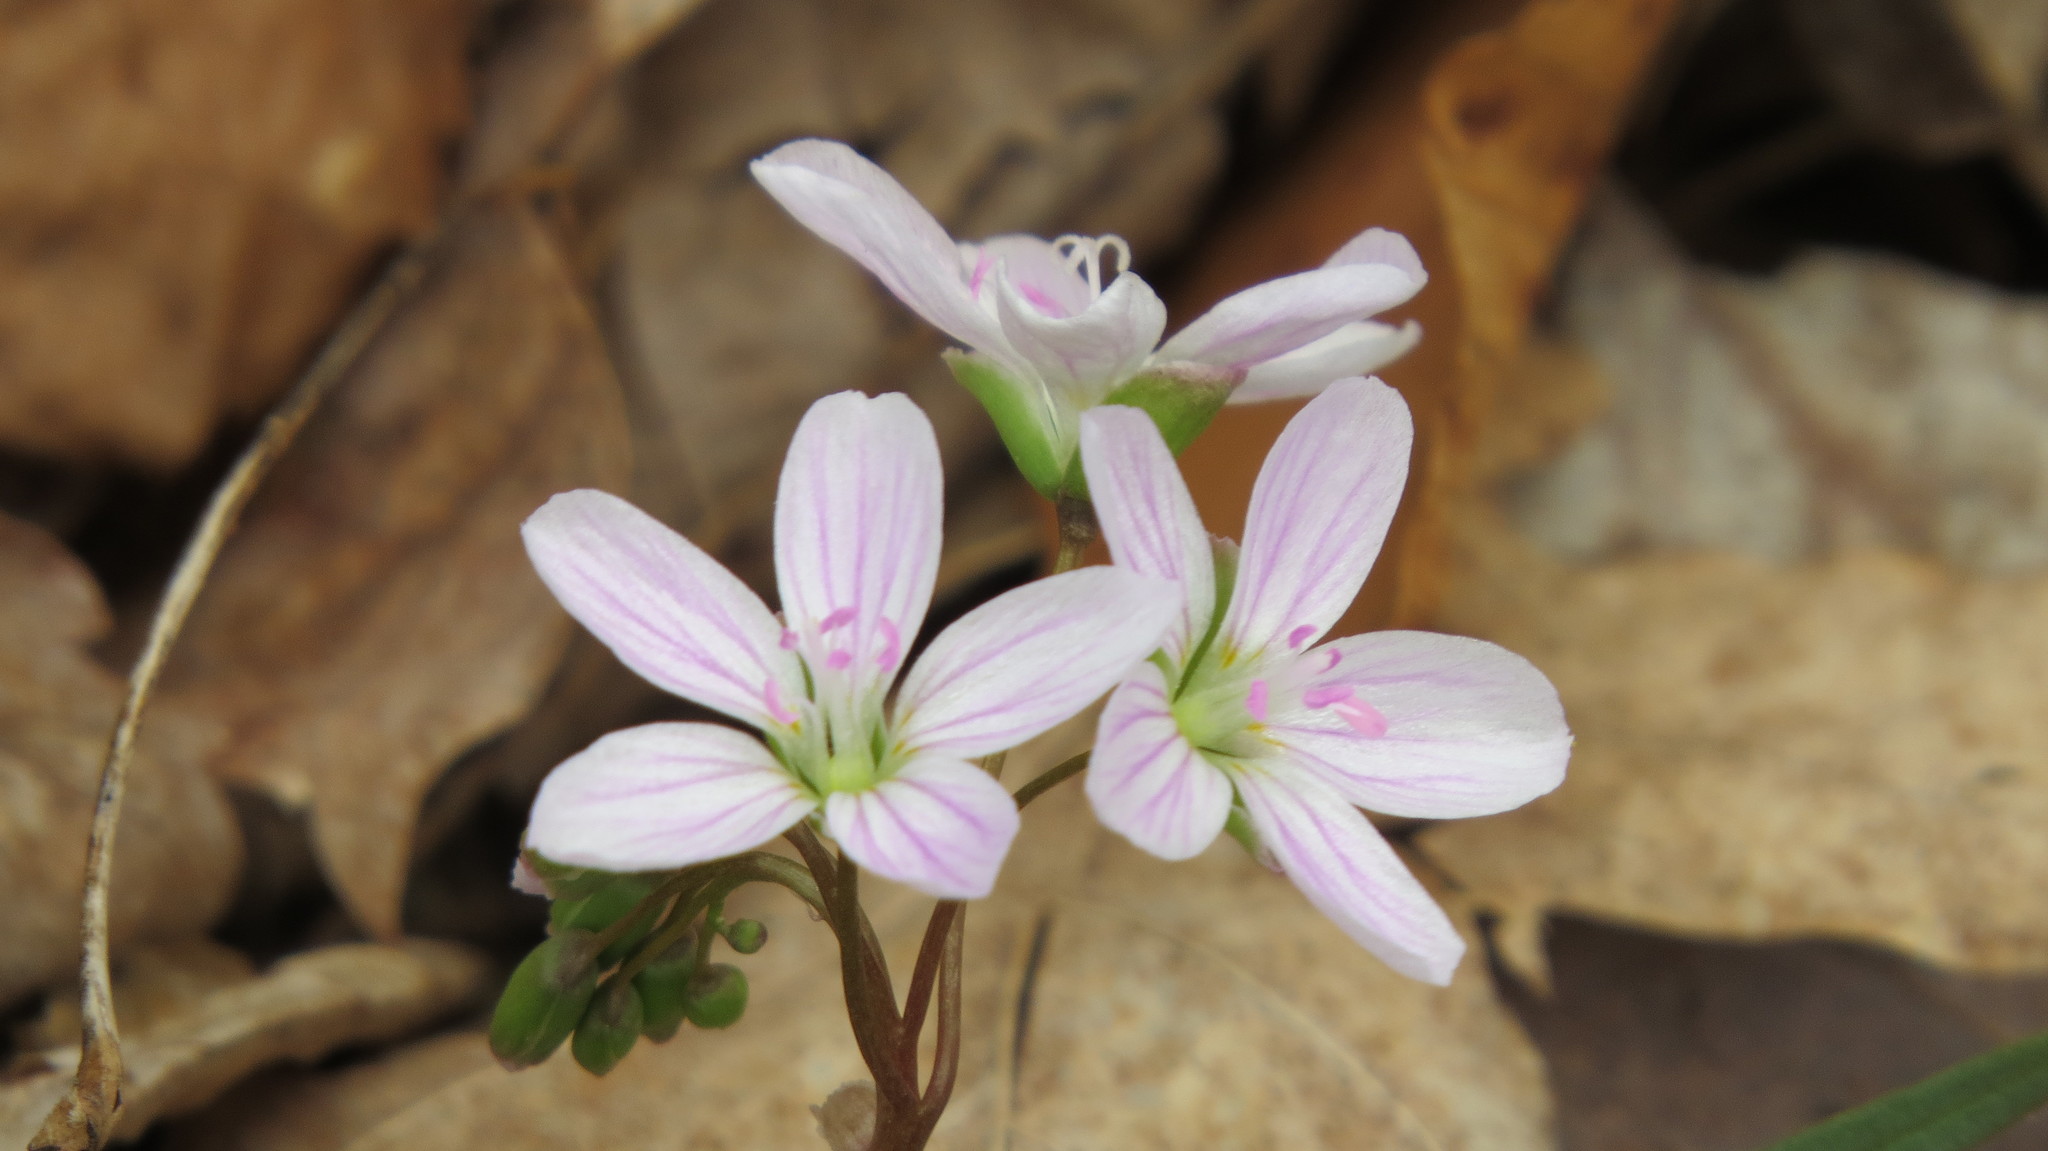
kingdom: Plantae
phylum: Tracheophyta
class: Magnoliopsida
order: Caryophyllales
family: Montiaceae
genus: Claytonia
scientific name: Claytonia virginica
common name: Virginia springbeauty
